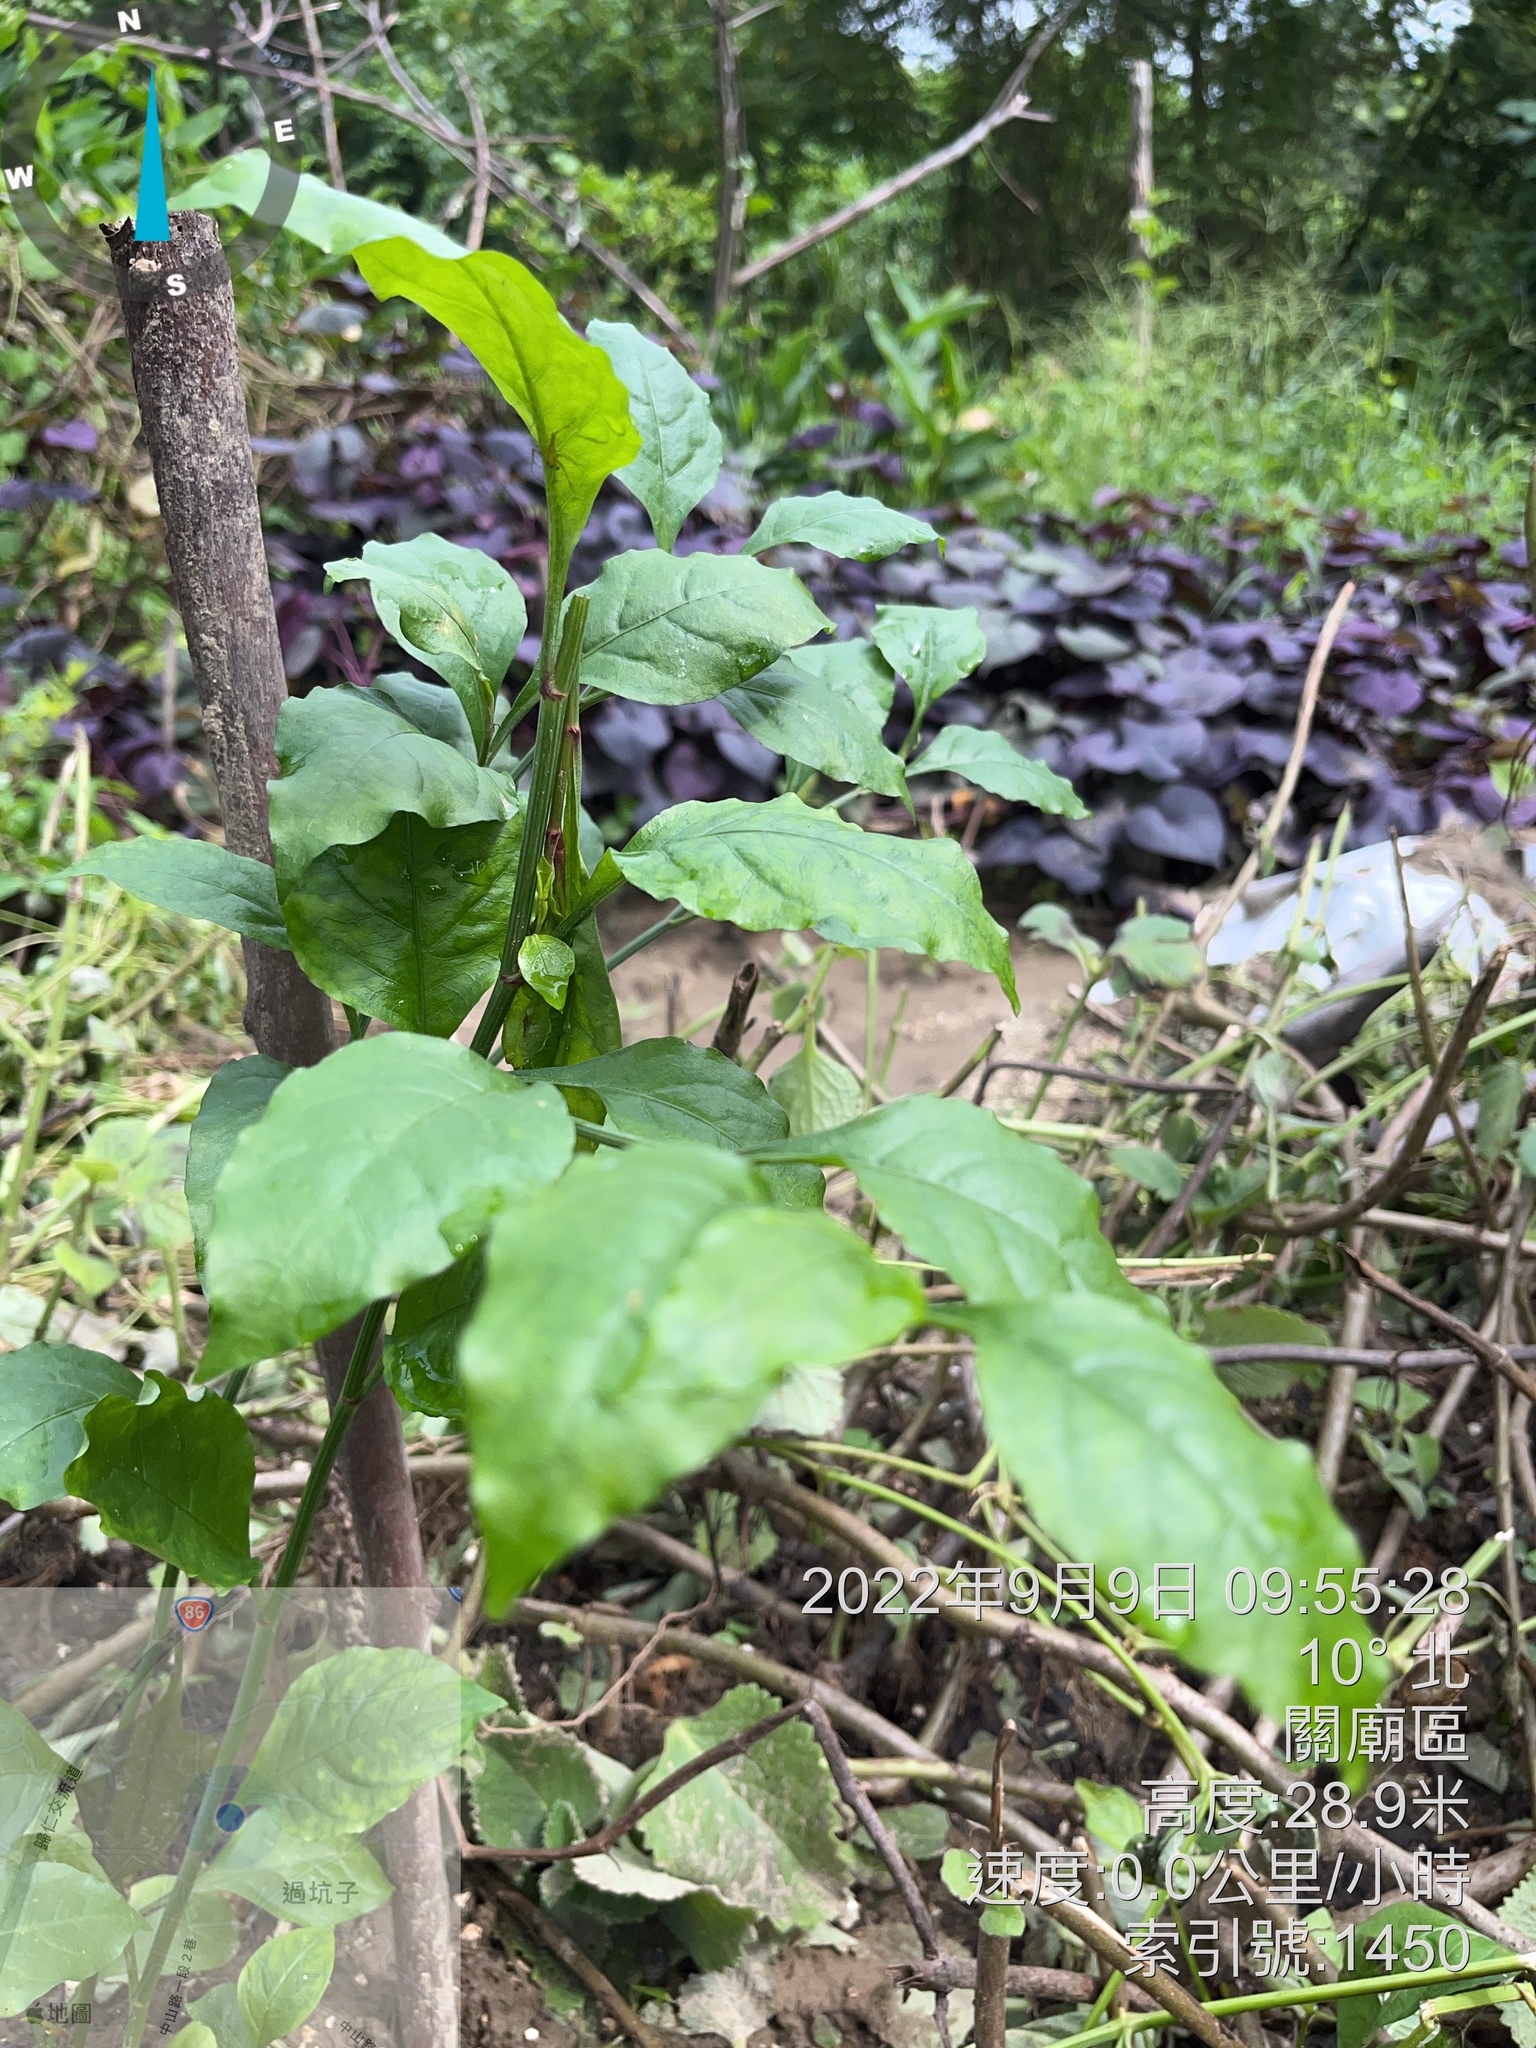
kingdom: Plantae
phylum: Tracheophyta
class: Magnoliopsida
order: Caryophyllales
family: Plumbaginaceae
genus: Plumbago
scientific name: Plumbago zeylanica
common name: Doctorbush
